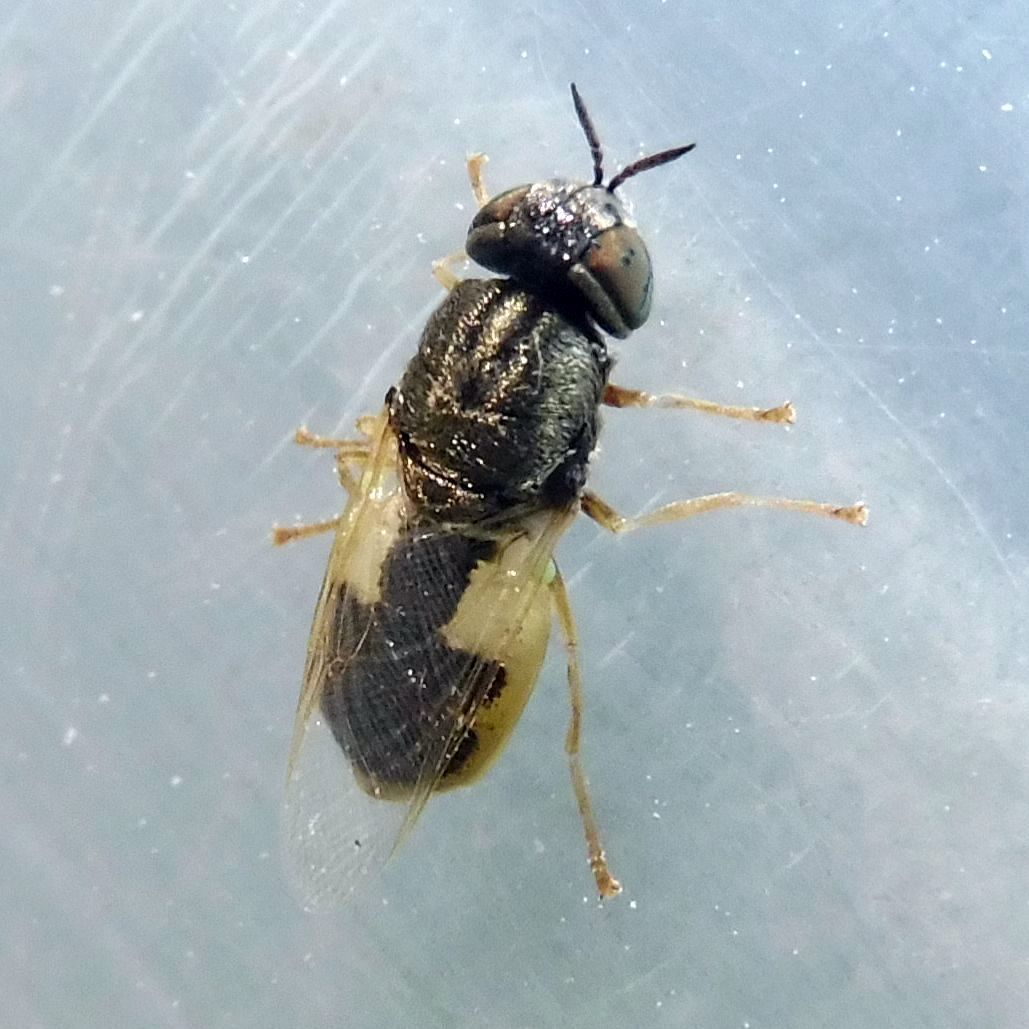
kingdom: Animalia
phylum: Arthropoda
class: Insecta
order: Diptera
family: Stratiomyidae
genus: Oplodontha
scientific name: Oplodontha viridula
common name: Common green colonel
